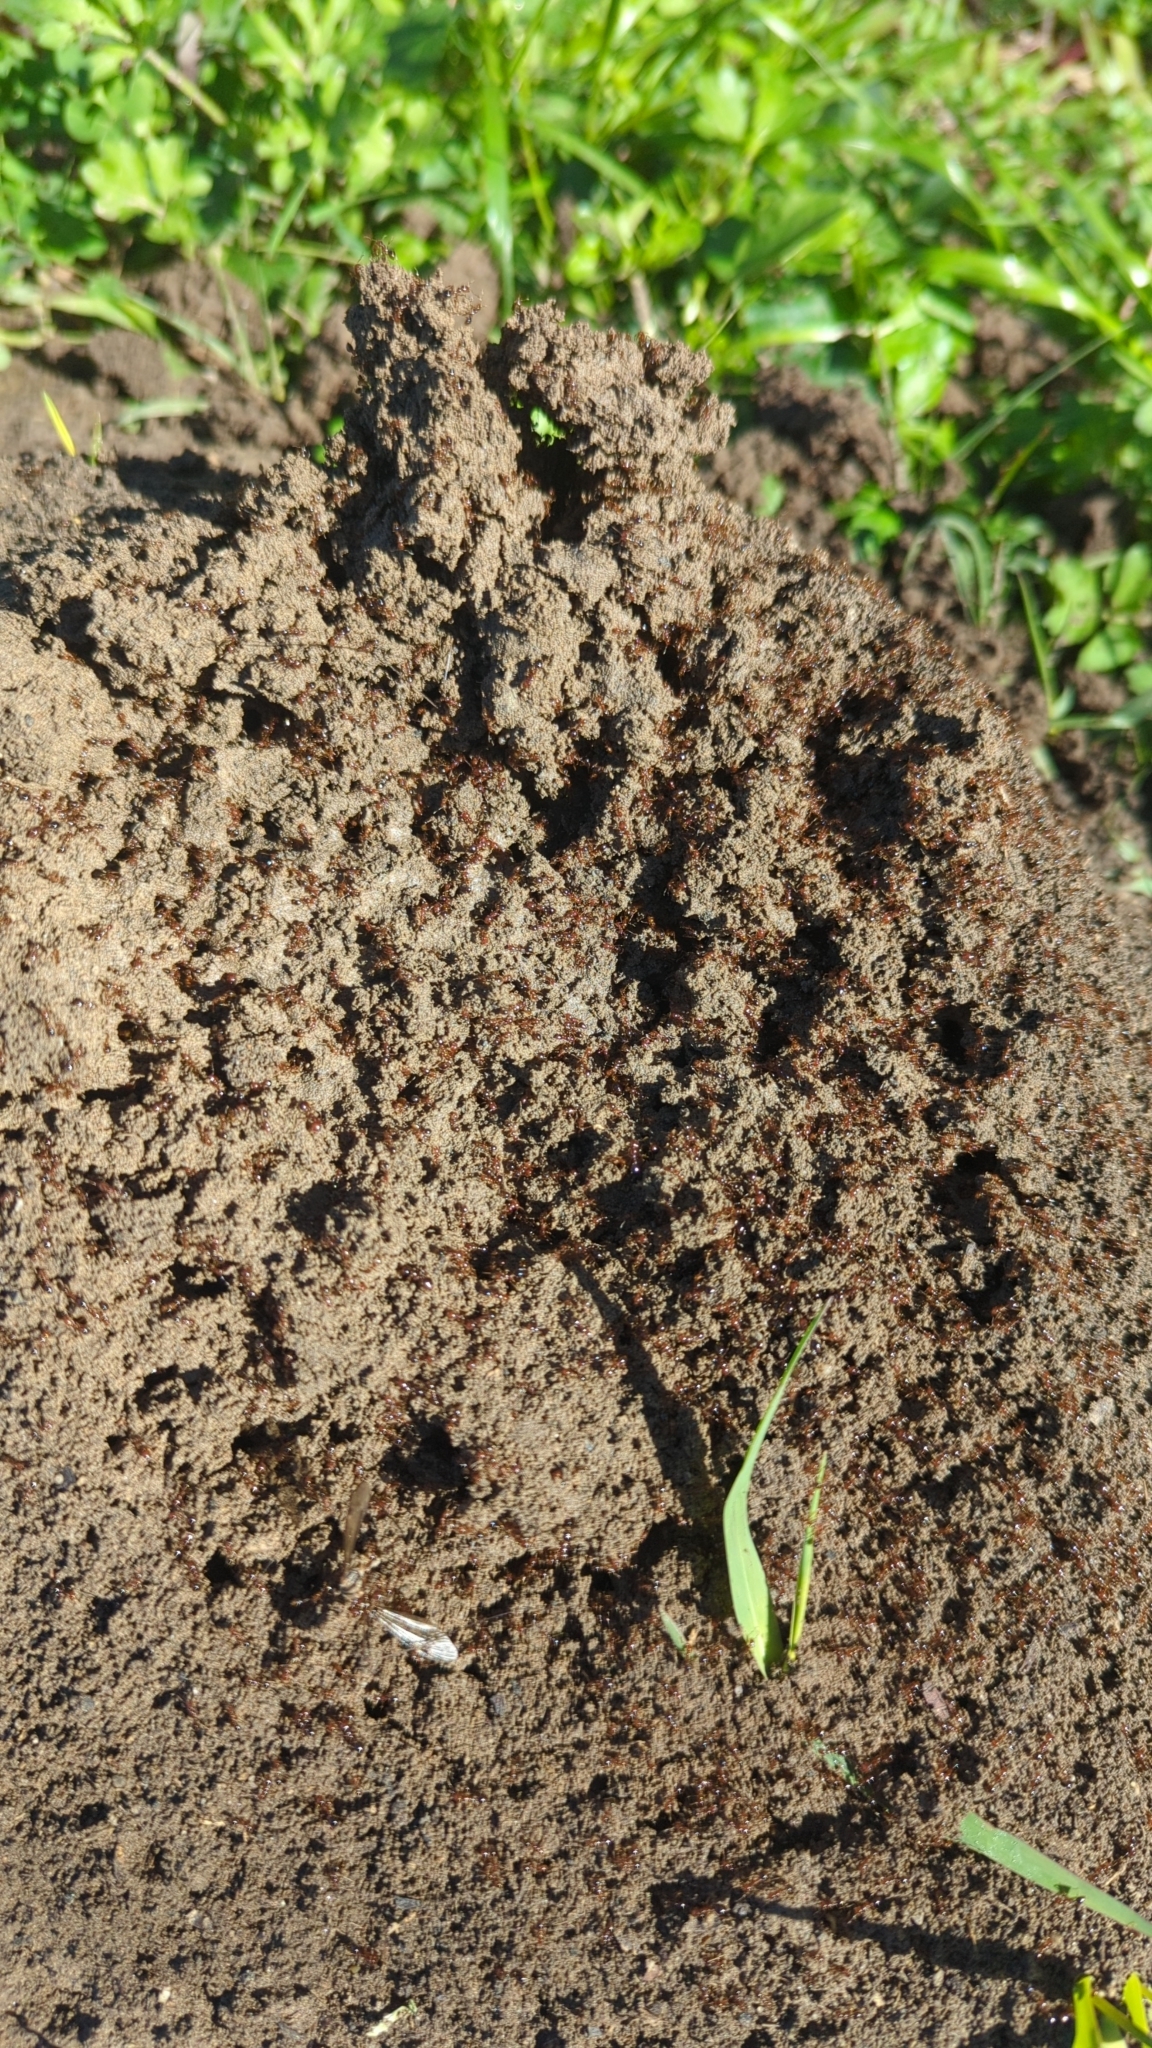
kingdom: Animalia
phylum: Arthropoda
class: Insecta
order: Hymenoptera
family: Formicidae
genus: Solenopsis
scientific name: Solenopsis invicta
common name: Red imported fire ant
